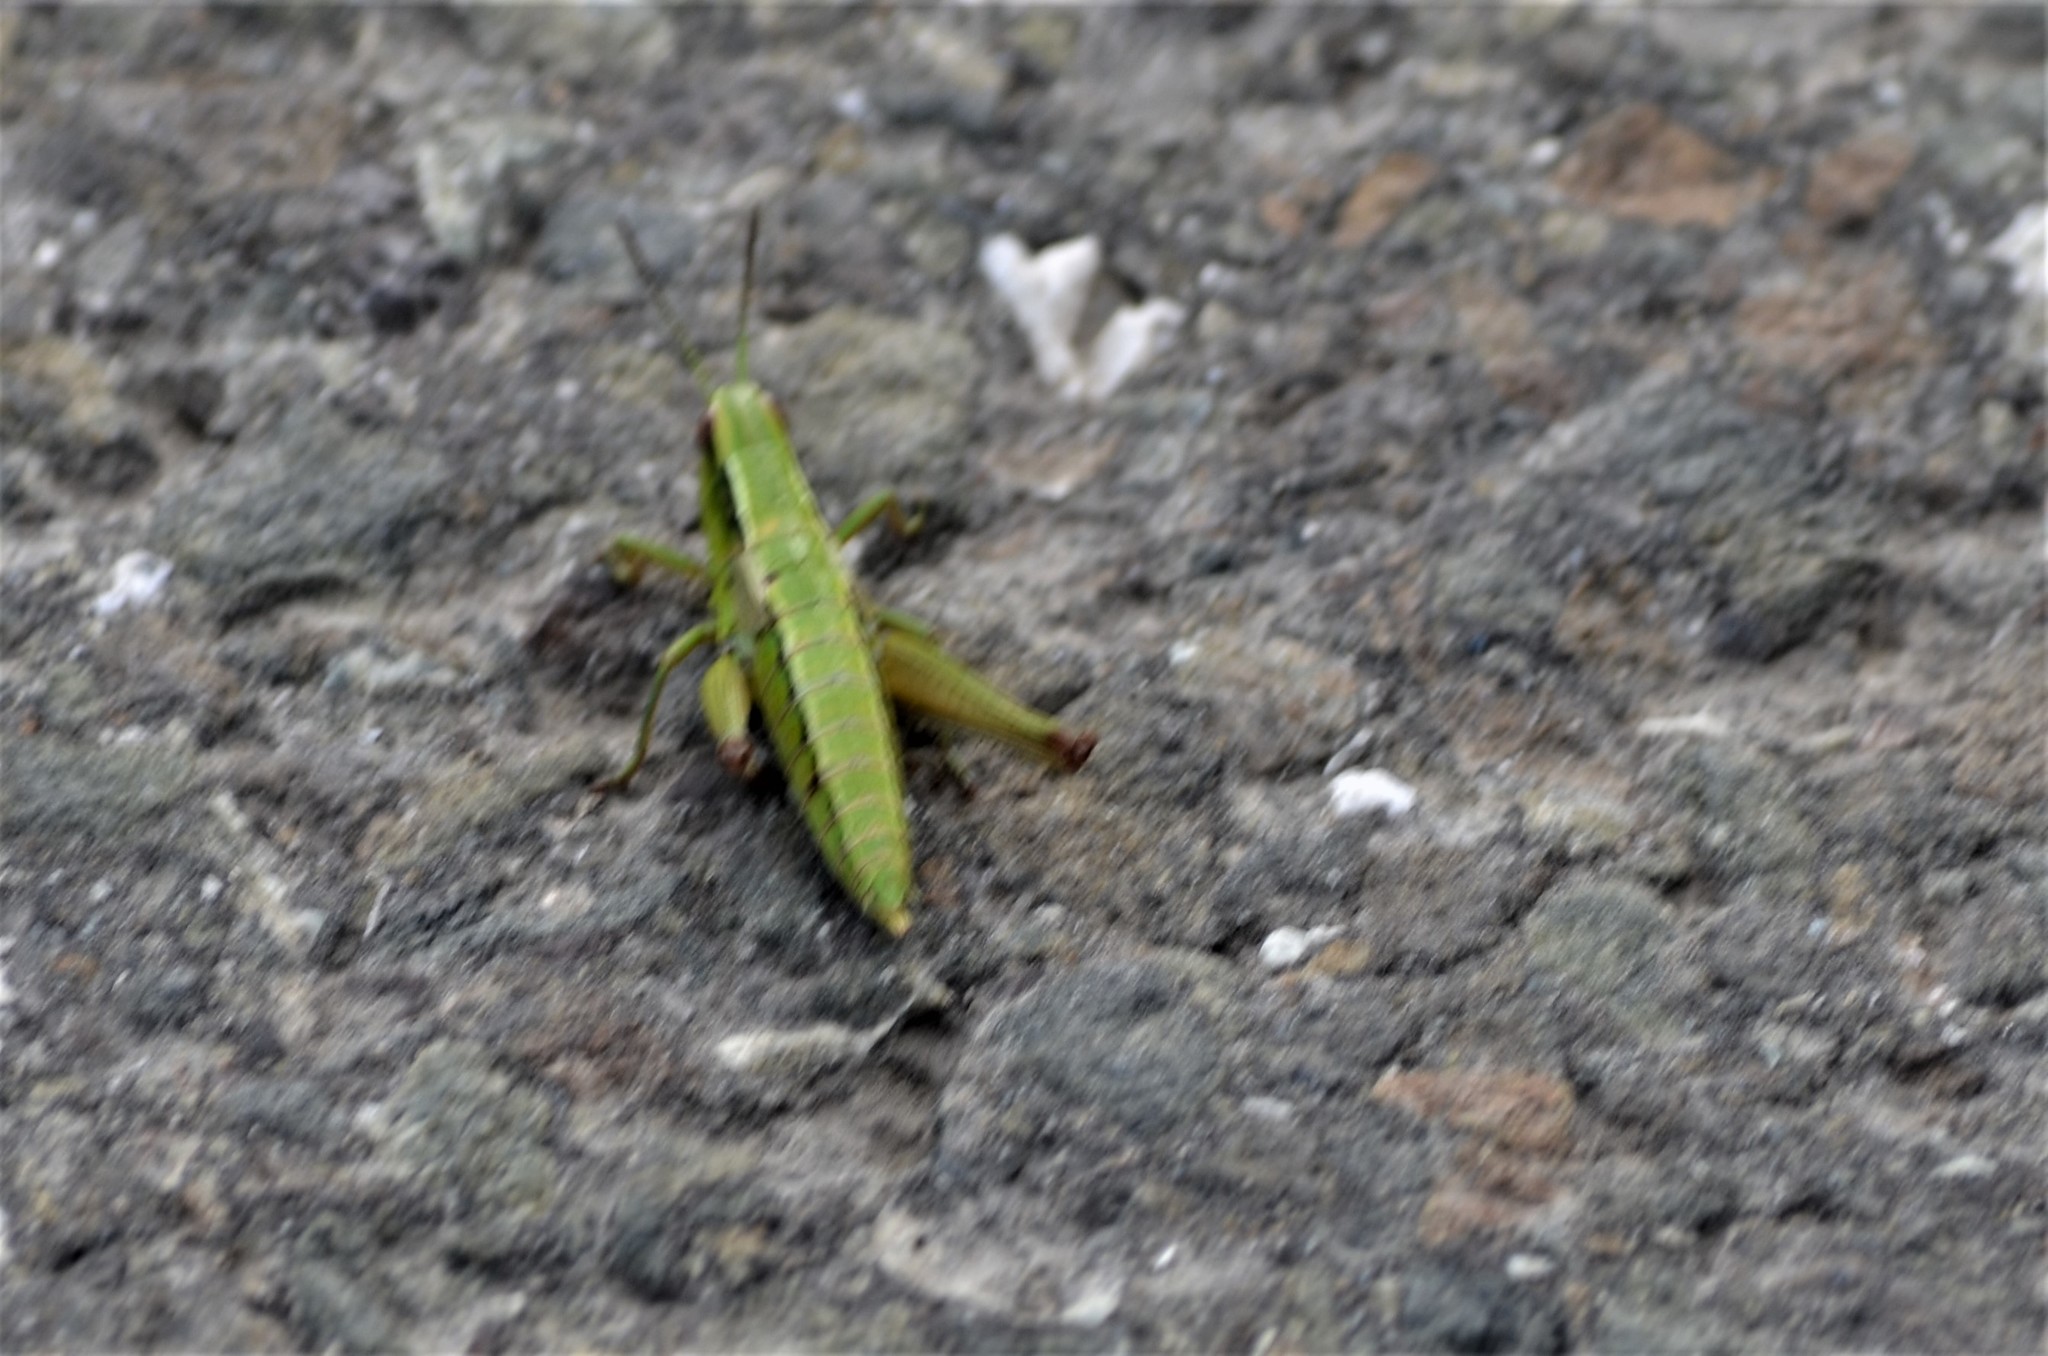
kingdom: Animalia
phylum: Arthropoda
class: Insecta
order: Orthoptera
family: Acrididae
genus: Euthystira
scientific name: Euthystira brachyptera
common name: Small gold grasshopper
